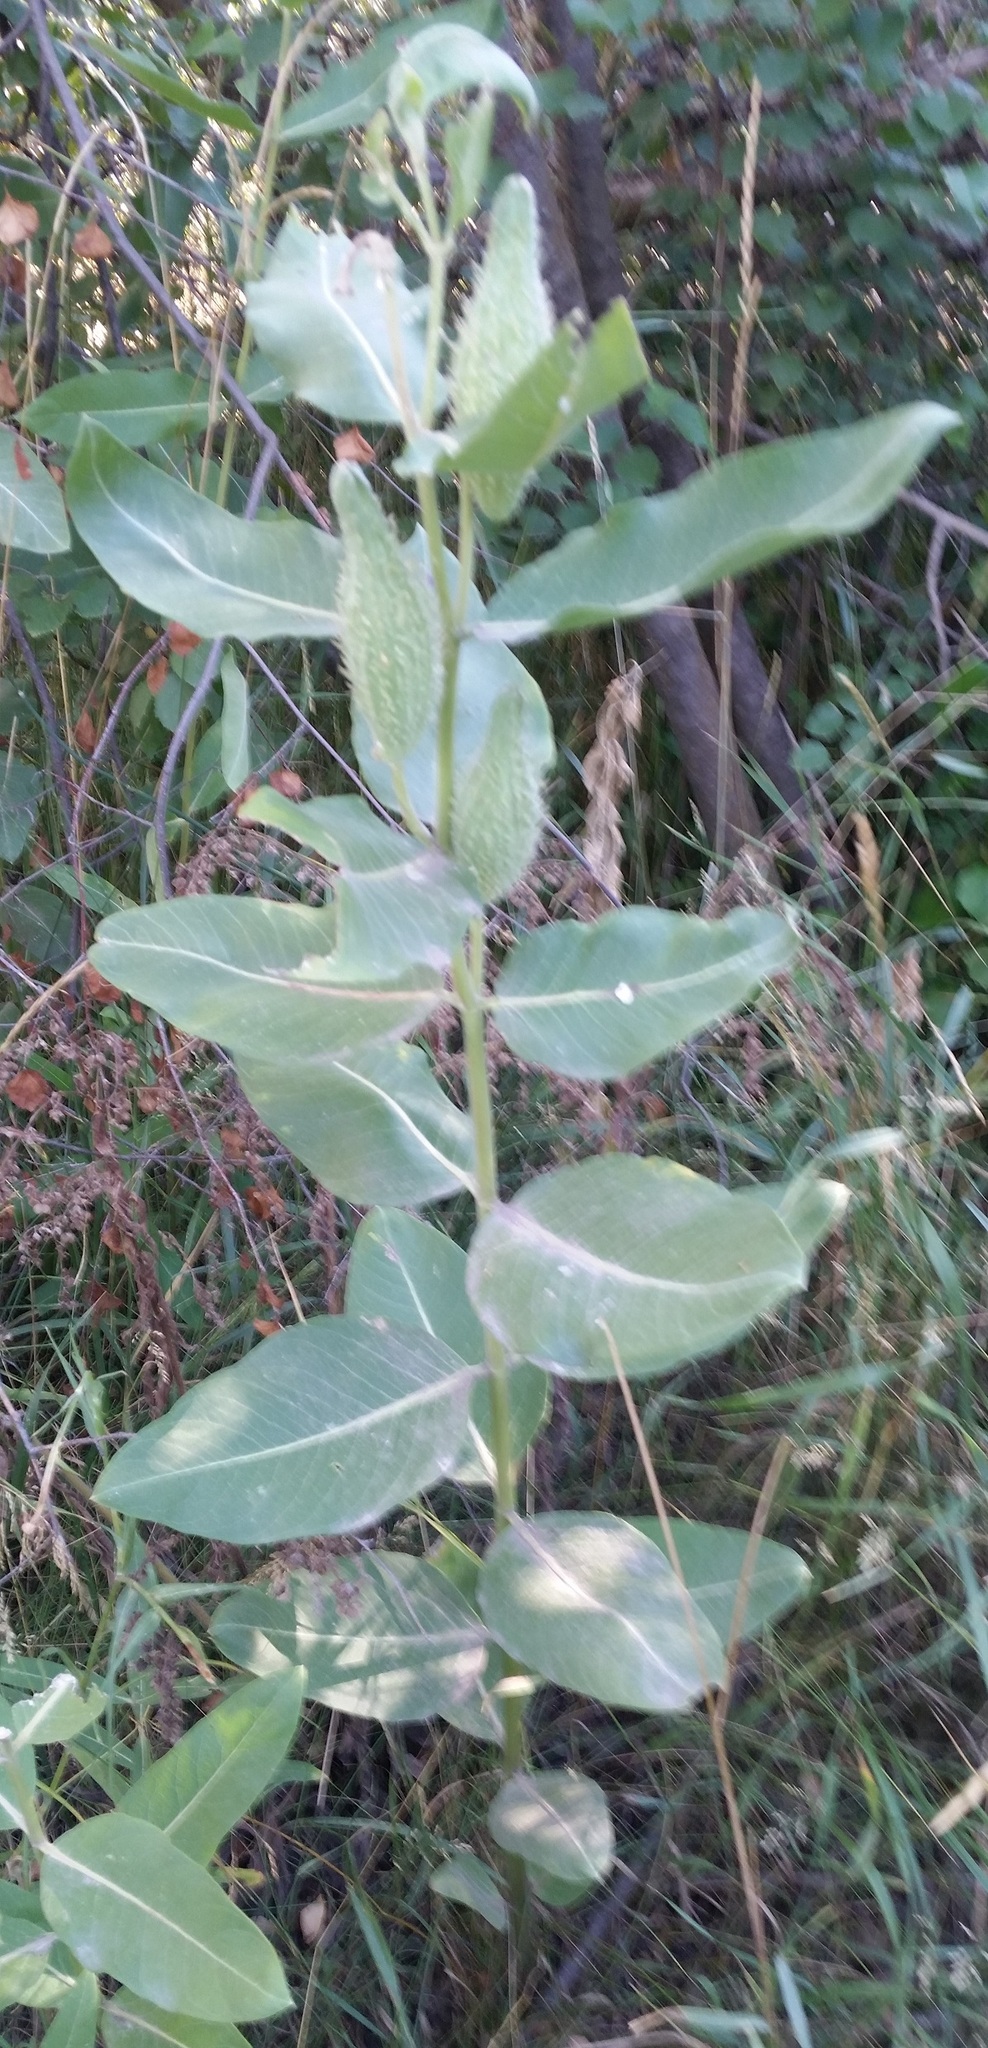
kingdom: Plantae
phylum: Tracheophyta
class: Magnoliopsida
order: Gentianales
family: Apocynaceae
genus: Asclepias
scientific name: Asclepias speciosa
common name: Showy milkweed
